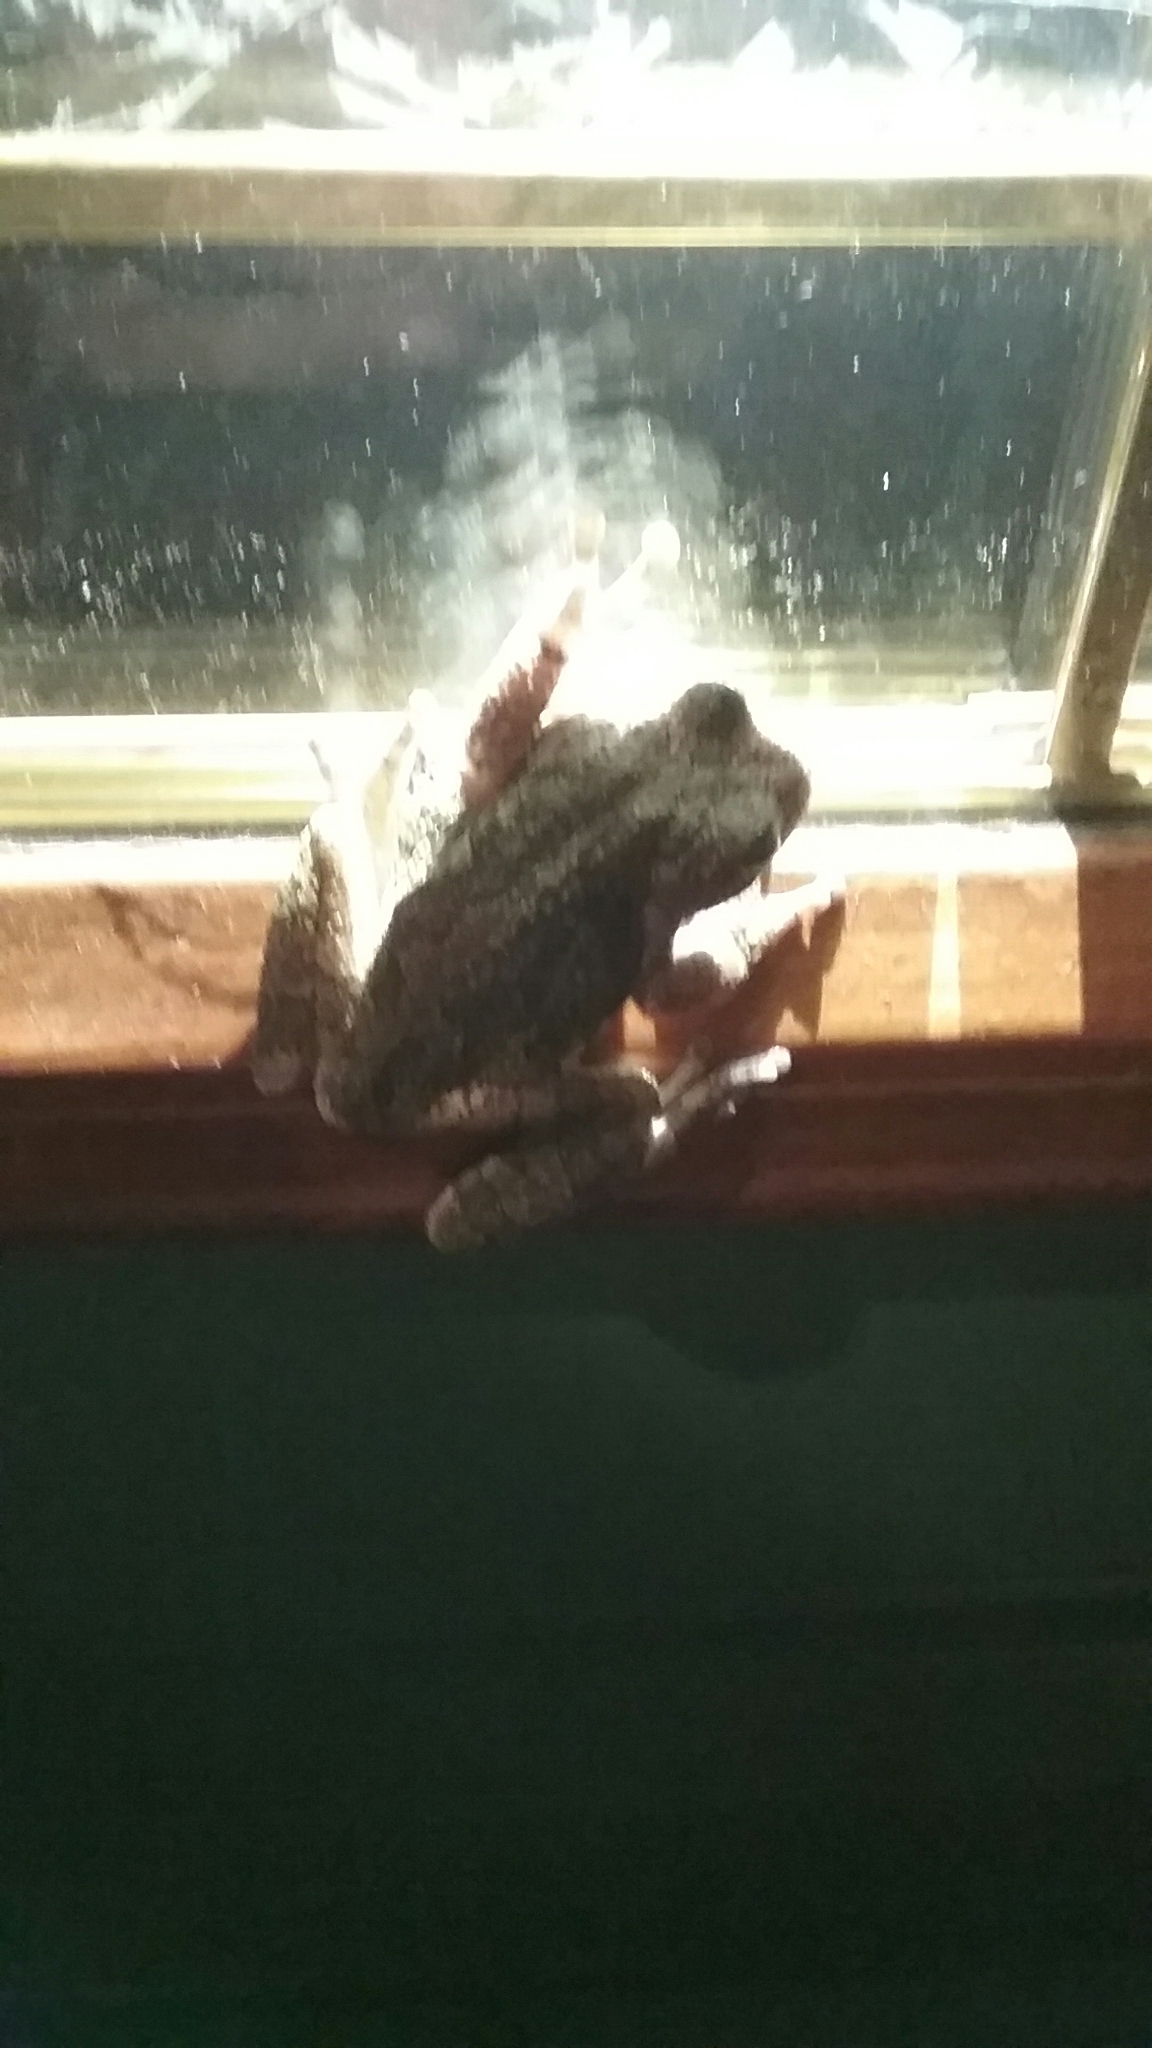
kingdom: Animalia
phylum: Chordata
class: Amphibia
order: Anura
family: Hylidae
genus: Hyla
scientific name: Hyla
